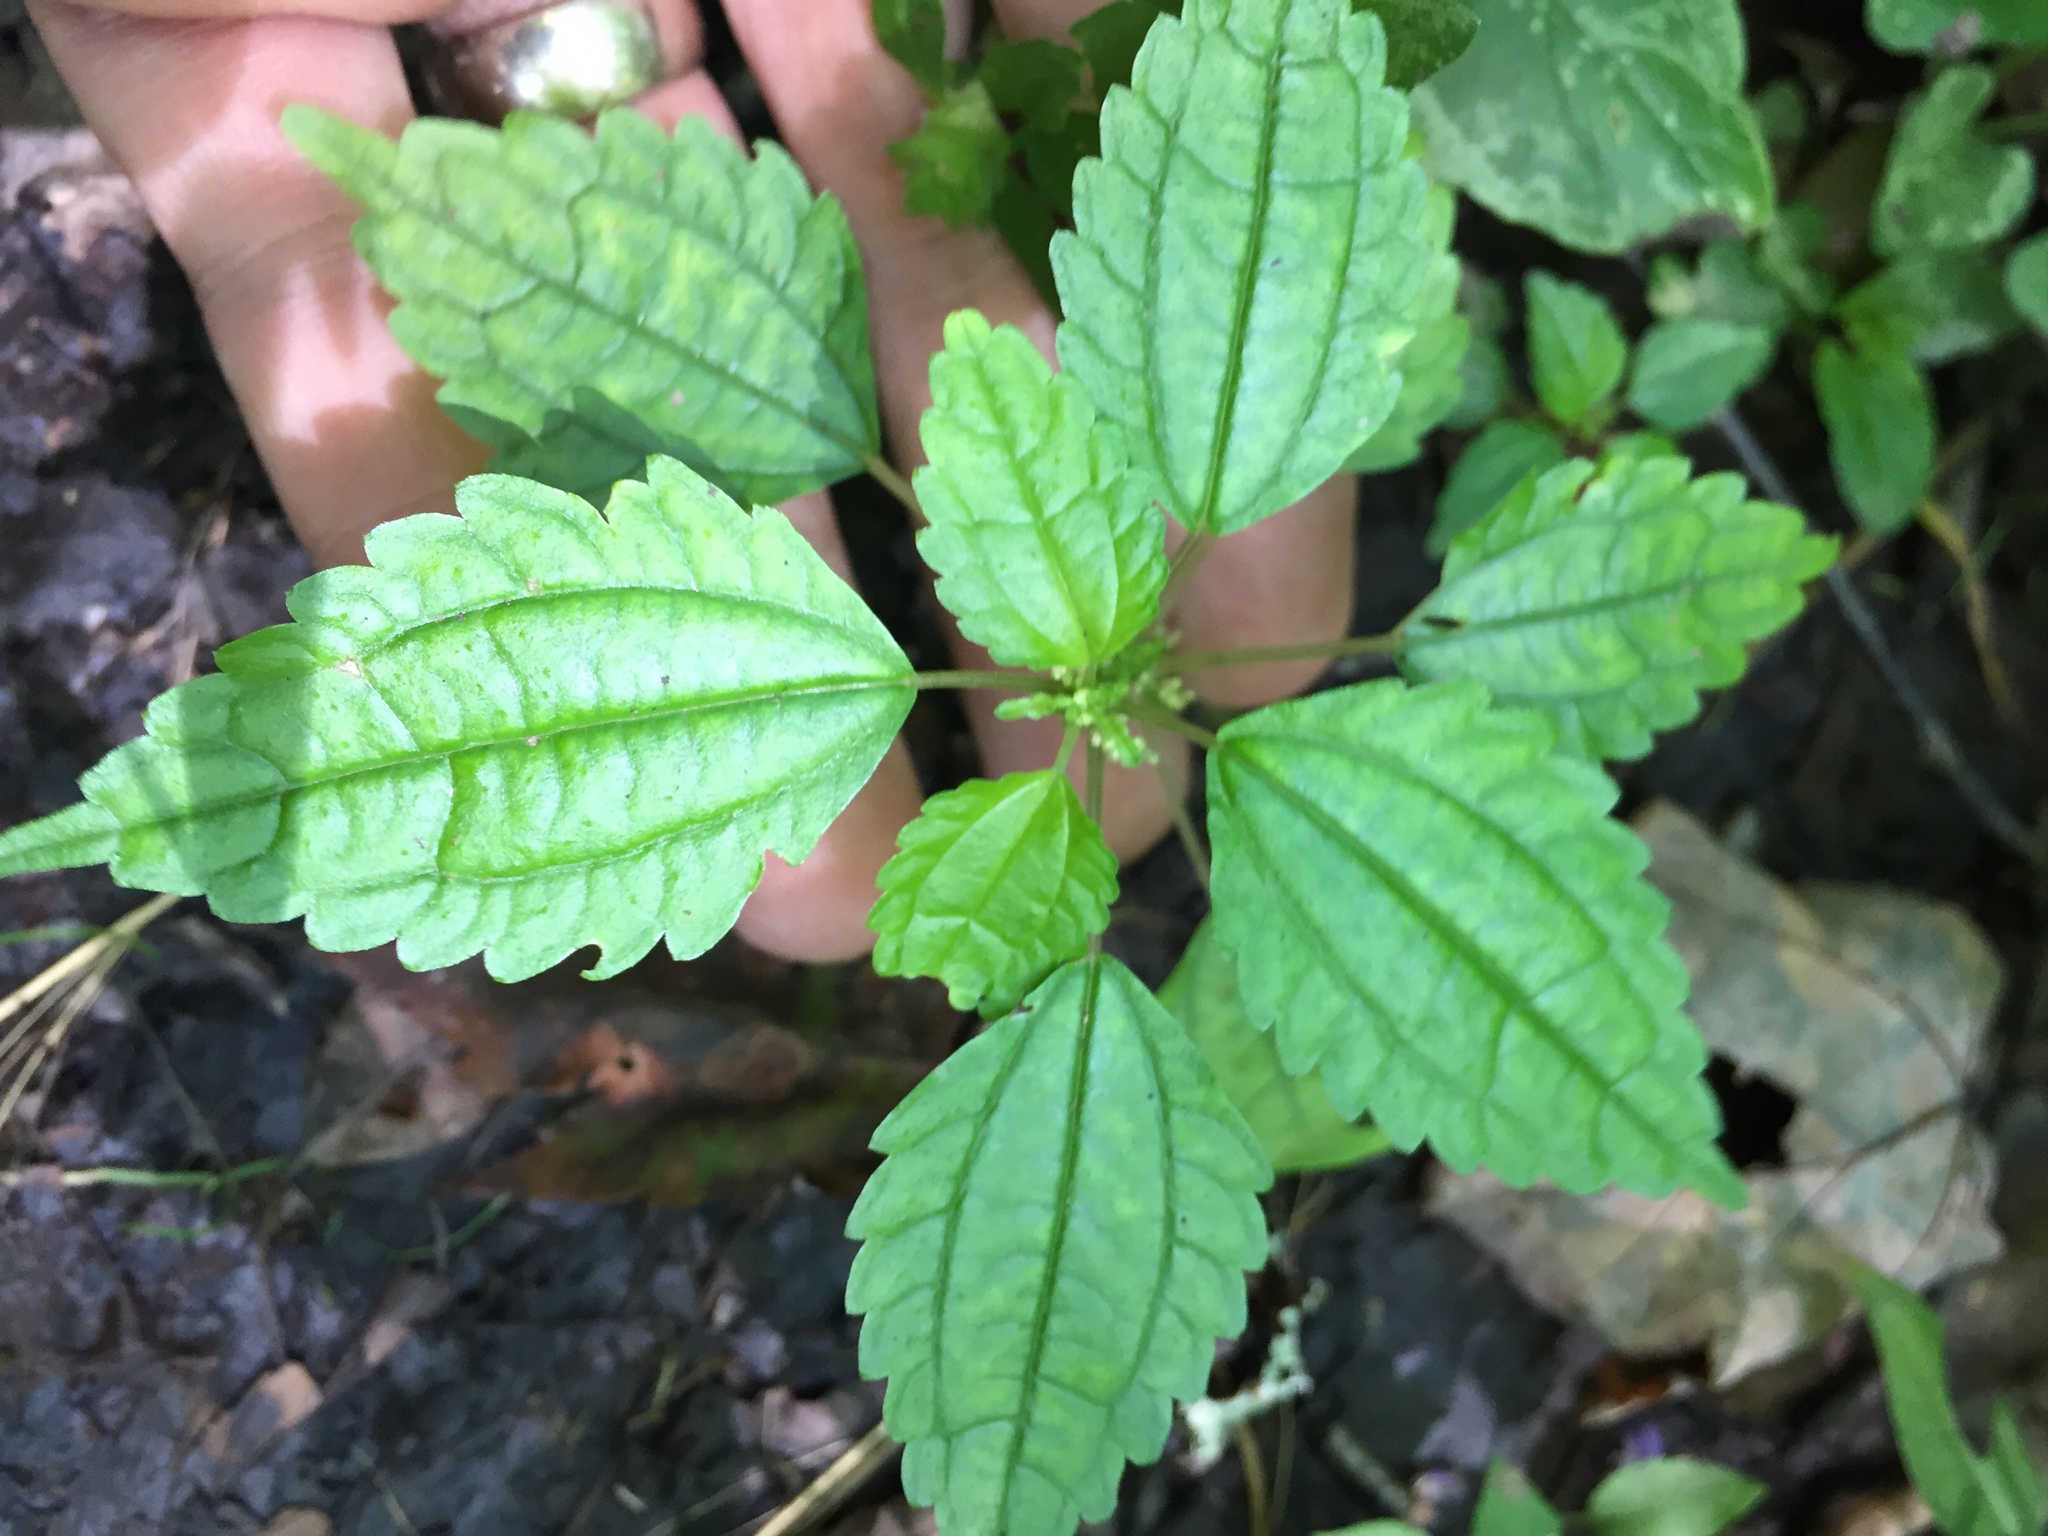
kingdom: Plantae
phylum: Tracheophyta
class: Magnoliopsida
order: Rosales
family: Urticaceae
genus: Pilea
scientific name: Pilea pumila
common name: Clearweed
